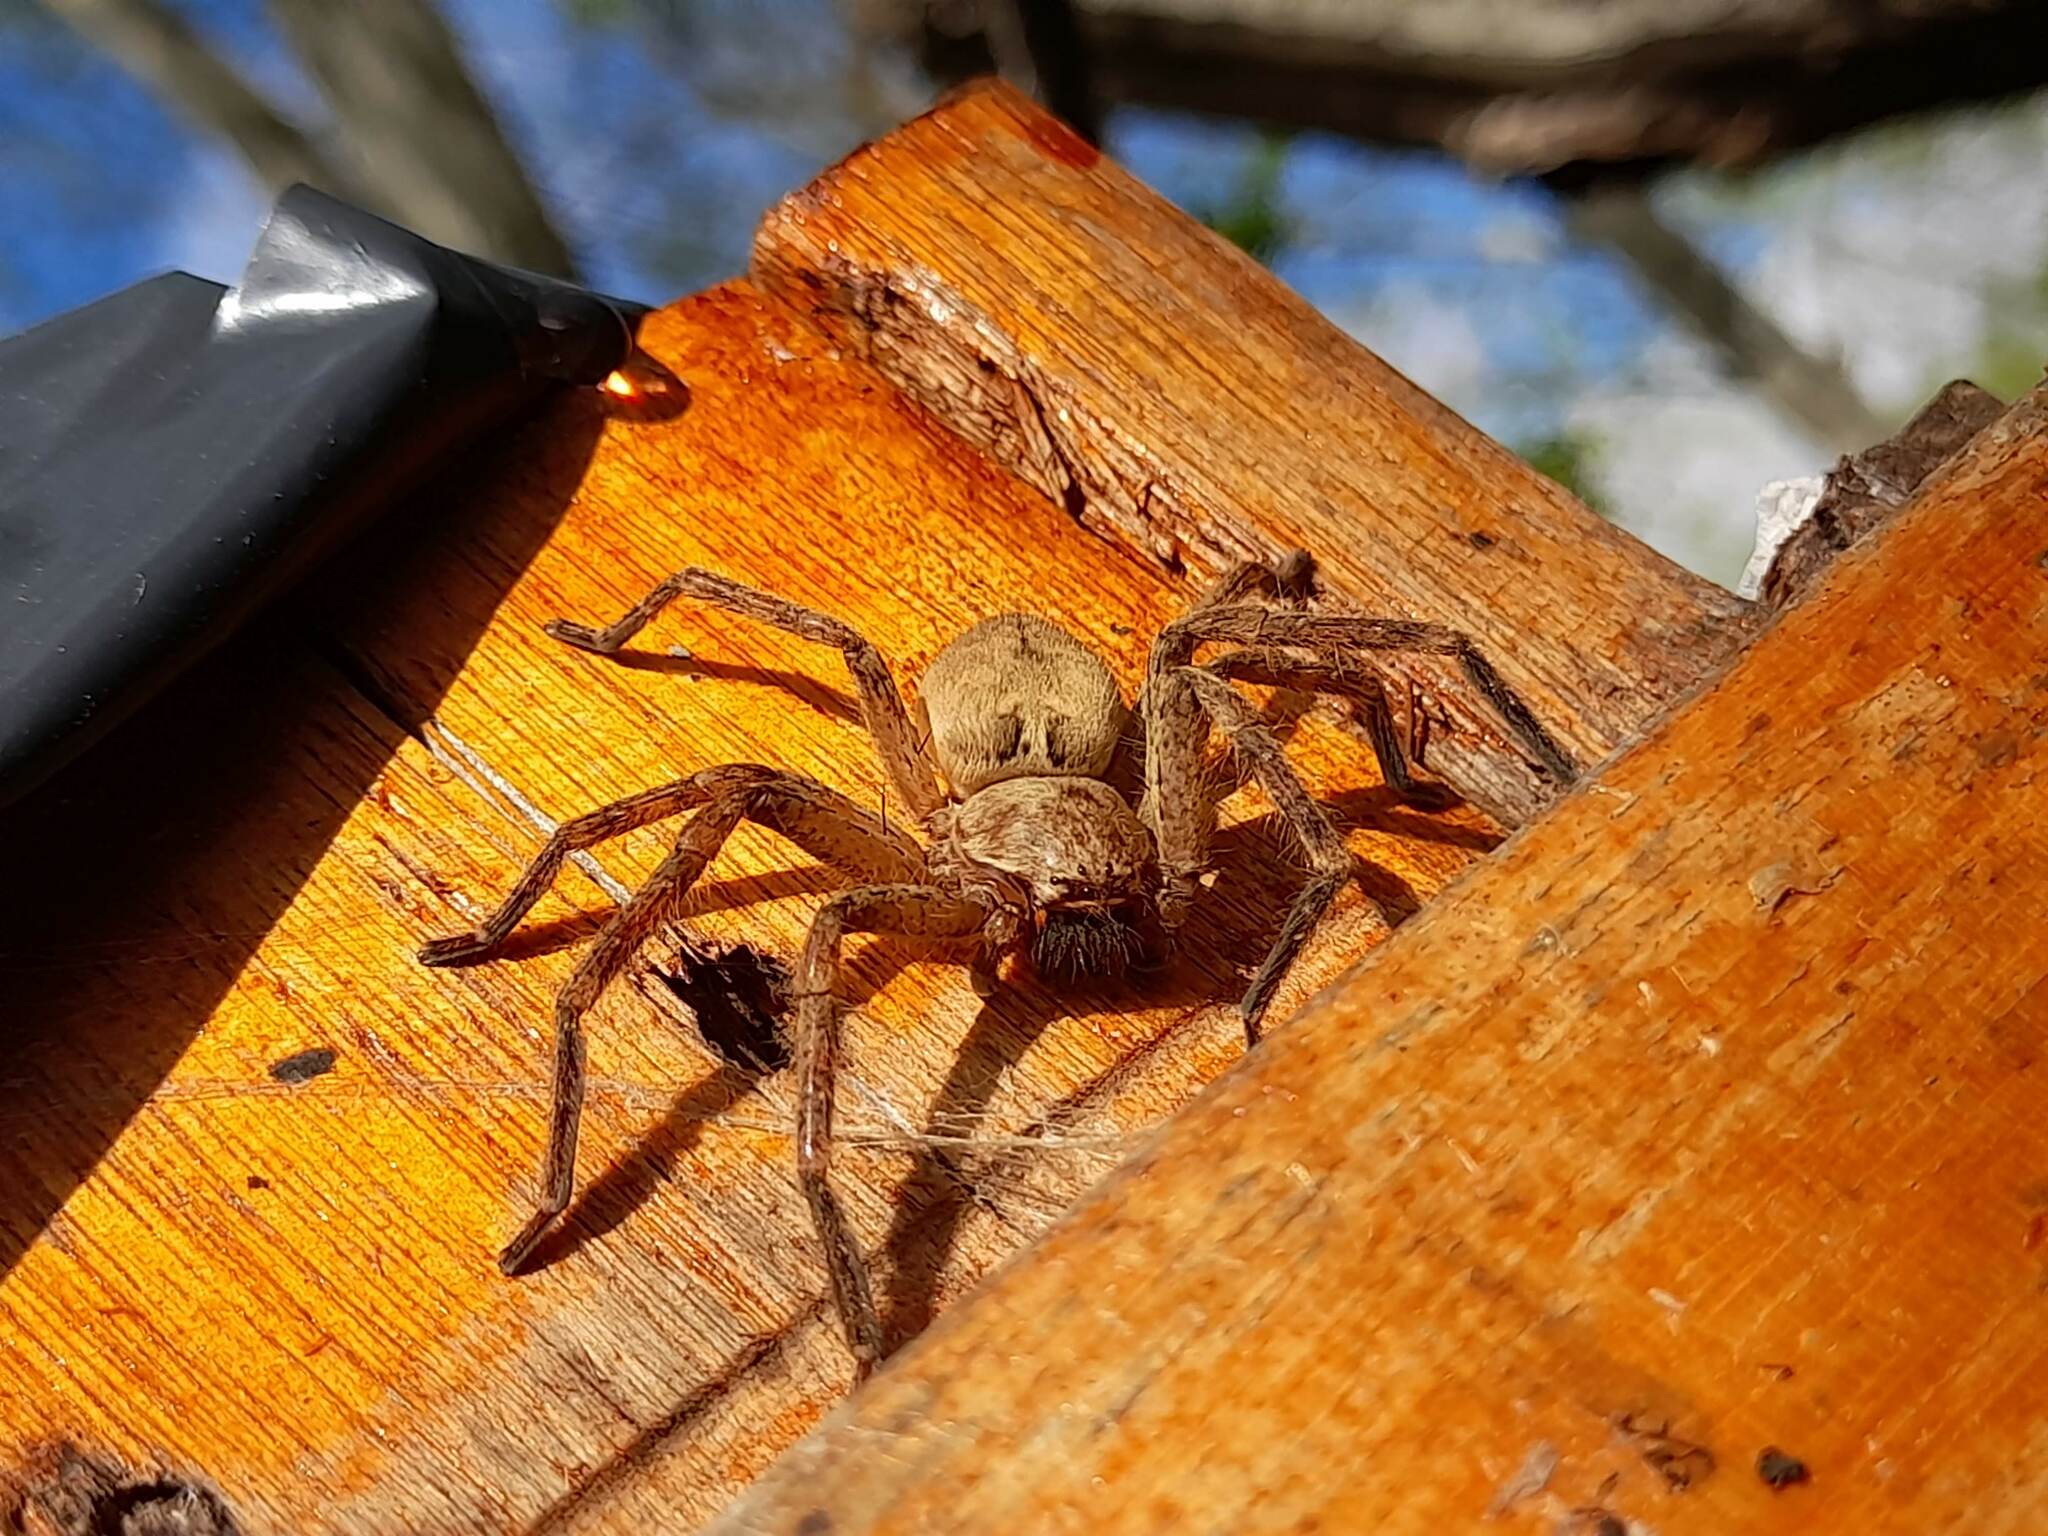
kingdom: Animalia
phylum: Arthropoda
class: Arachnida
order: Araneae
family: Sparassidae
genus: Polybetes
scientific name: Polybetes rapidus
